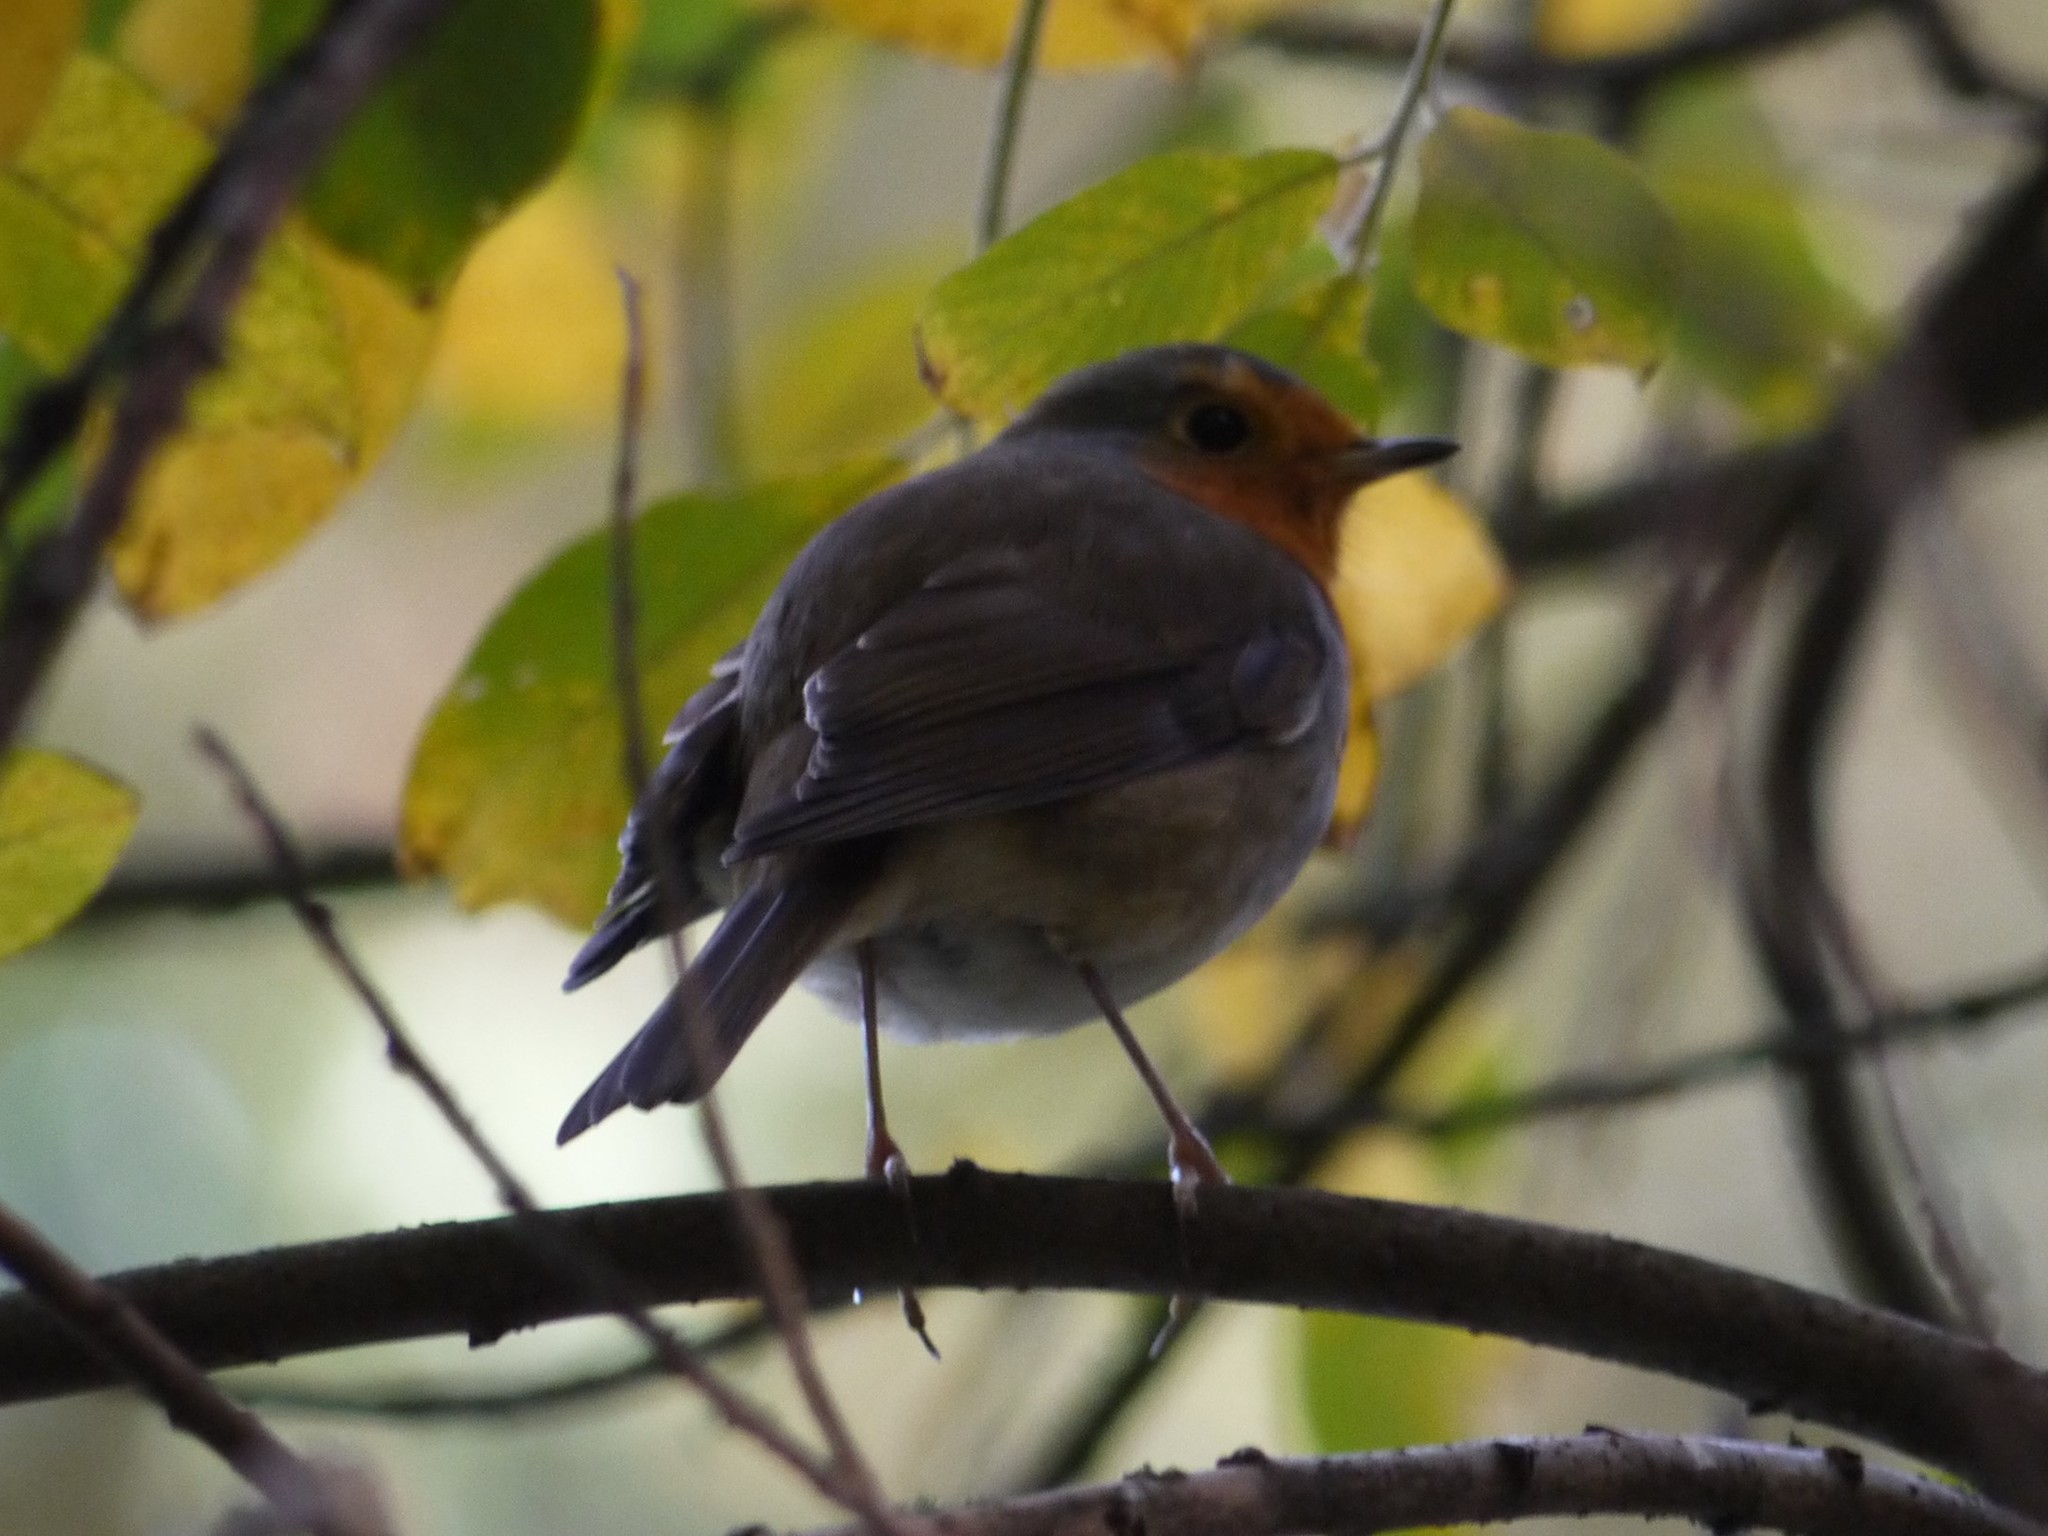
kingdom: Animalia
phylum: Chordata
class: Aves
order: Passeriformes
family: Muscicapidae
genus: Erithacus
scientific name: Erithacus rubecula
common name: European robin
